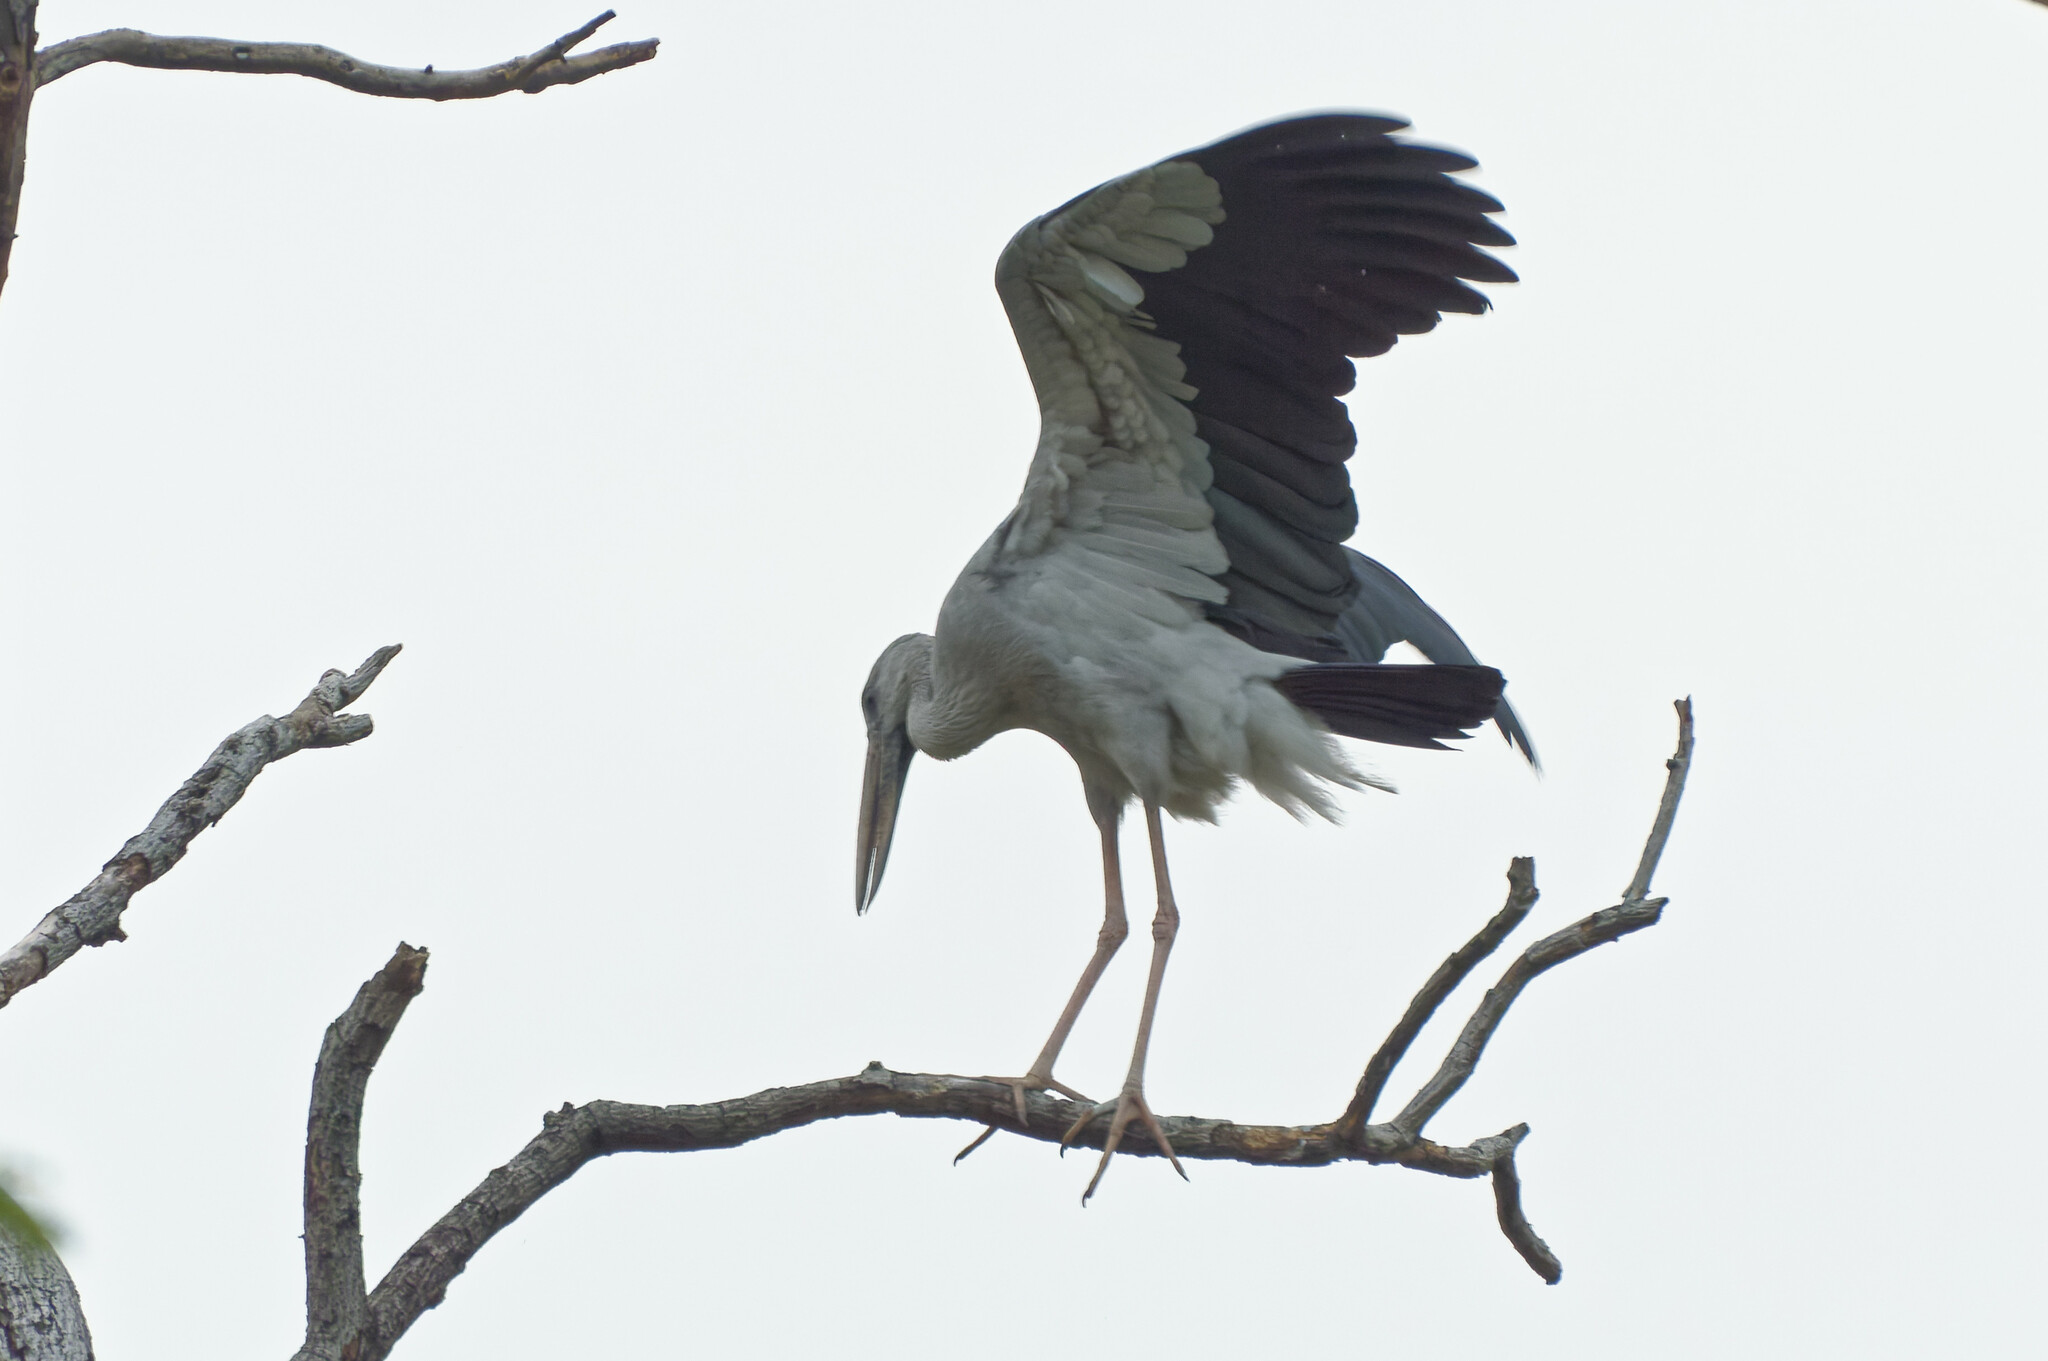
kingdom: Animalia
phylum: Chordata
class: Aves
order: Ciconiiformes
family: Ciconiidae
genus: Anastomus
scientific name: Anastomus oscitans
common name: Asian openbill
